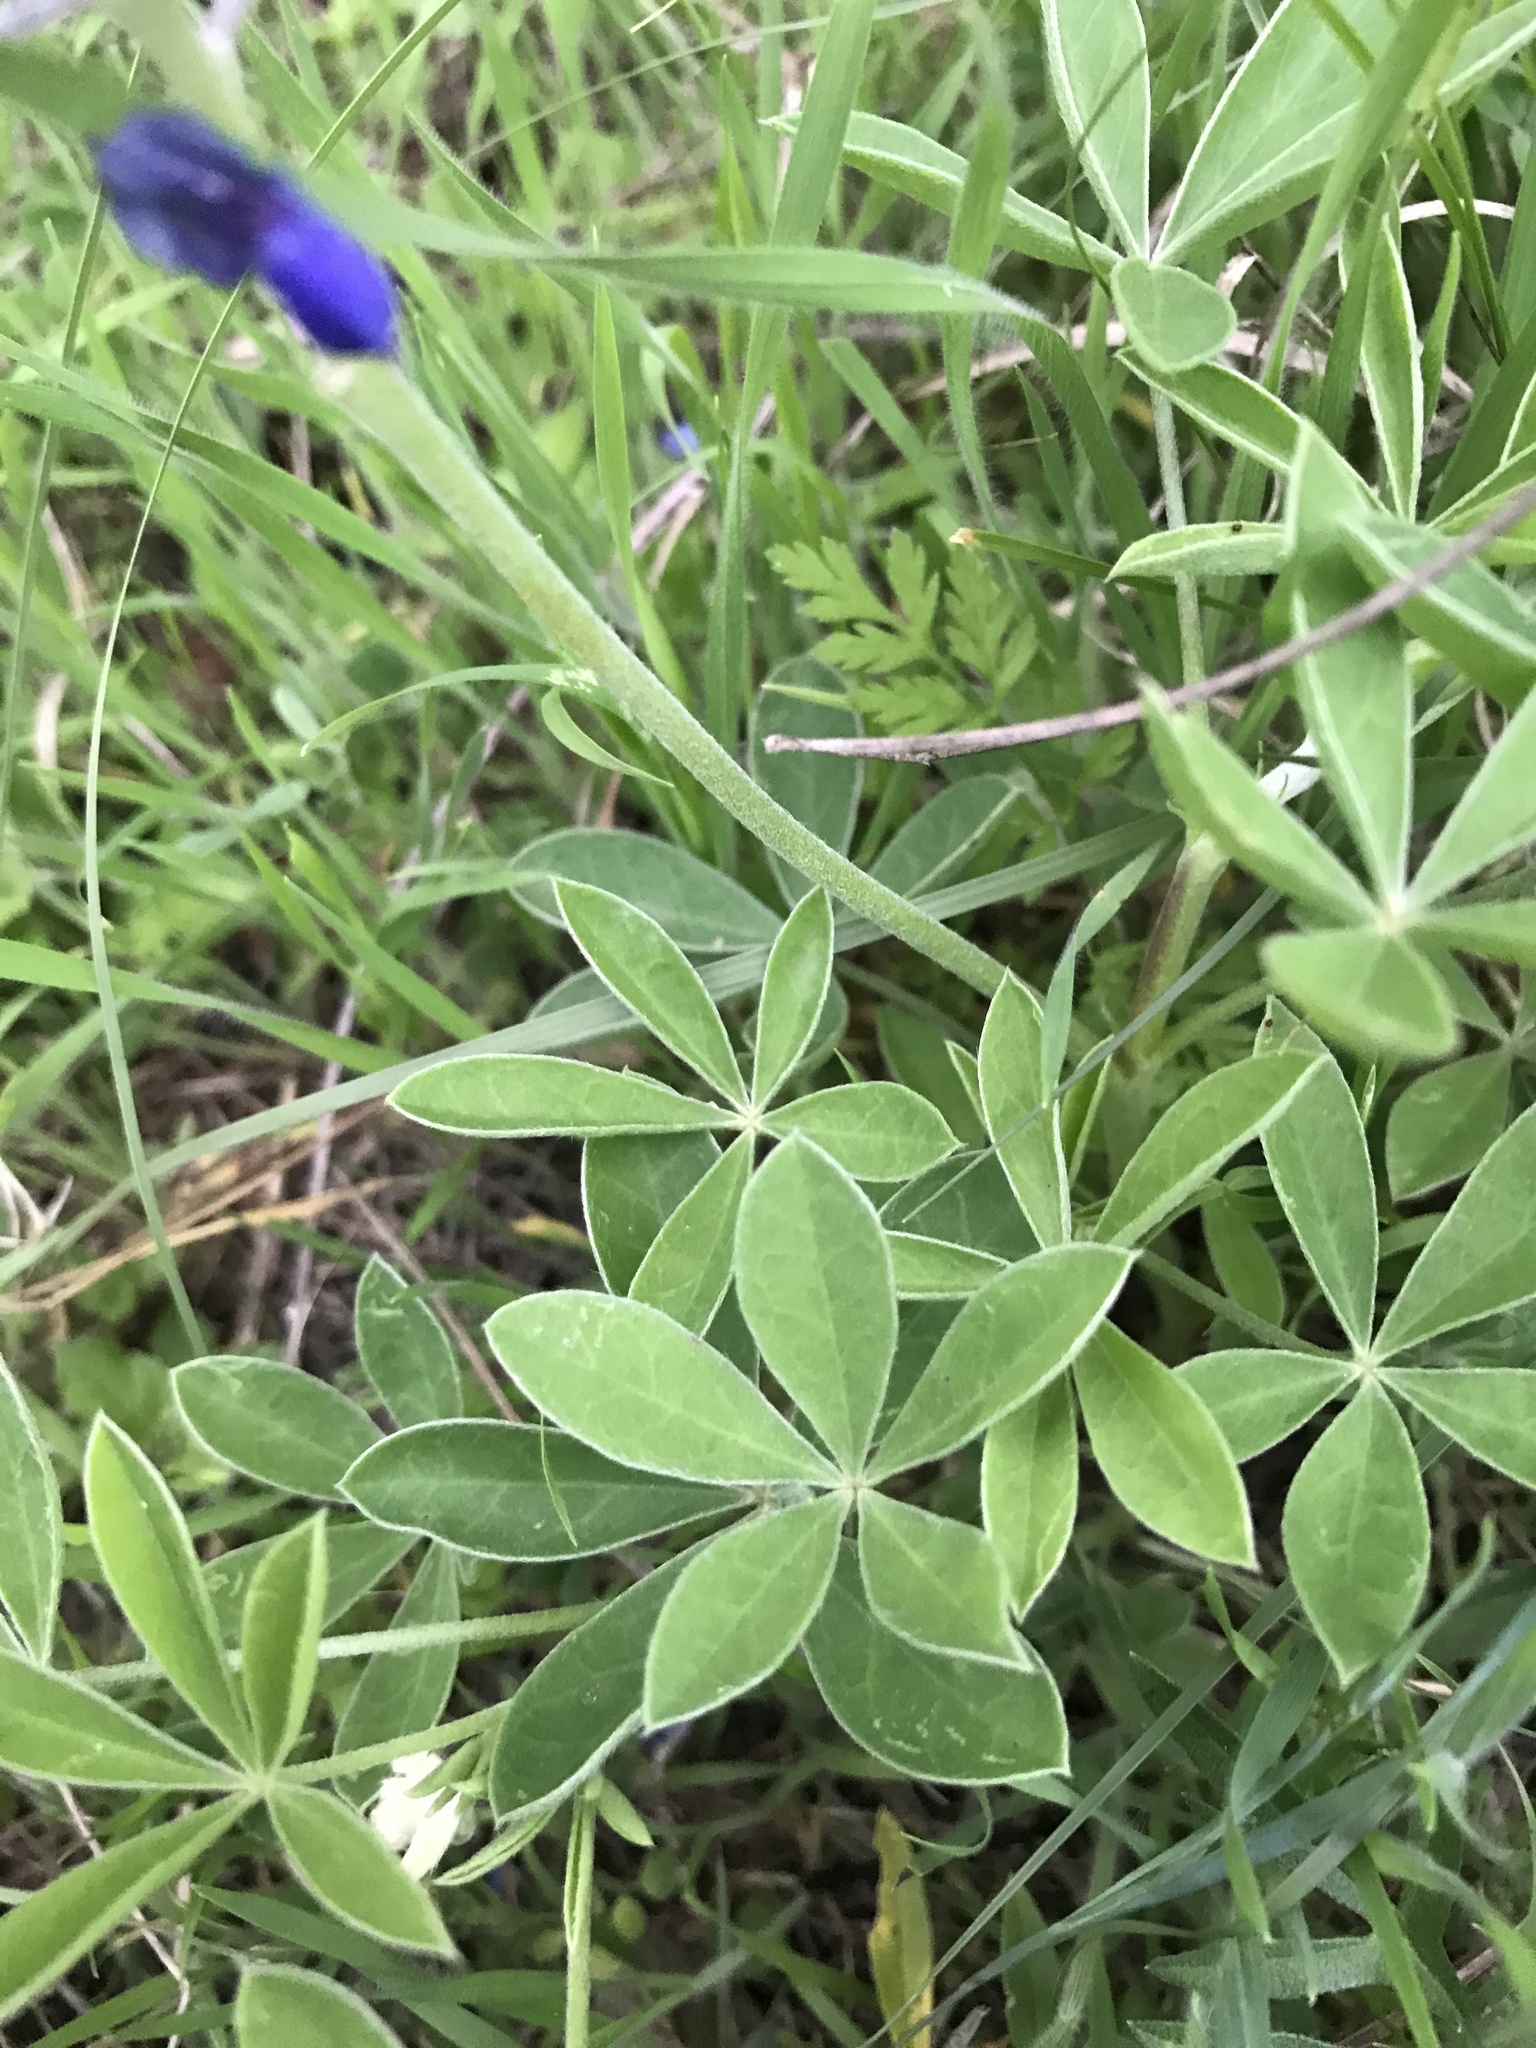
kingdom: Plantae
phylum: Tracheophyta
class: Magnoliopsida
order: Fabales
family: Fabaceae
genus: Lupinus
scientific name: Lupinus texensis
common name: Texas bluebonnet
